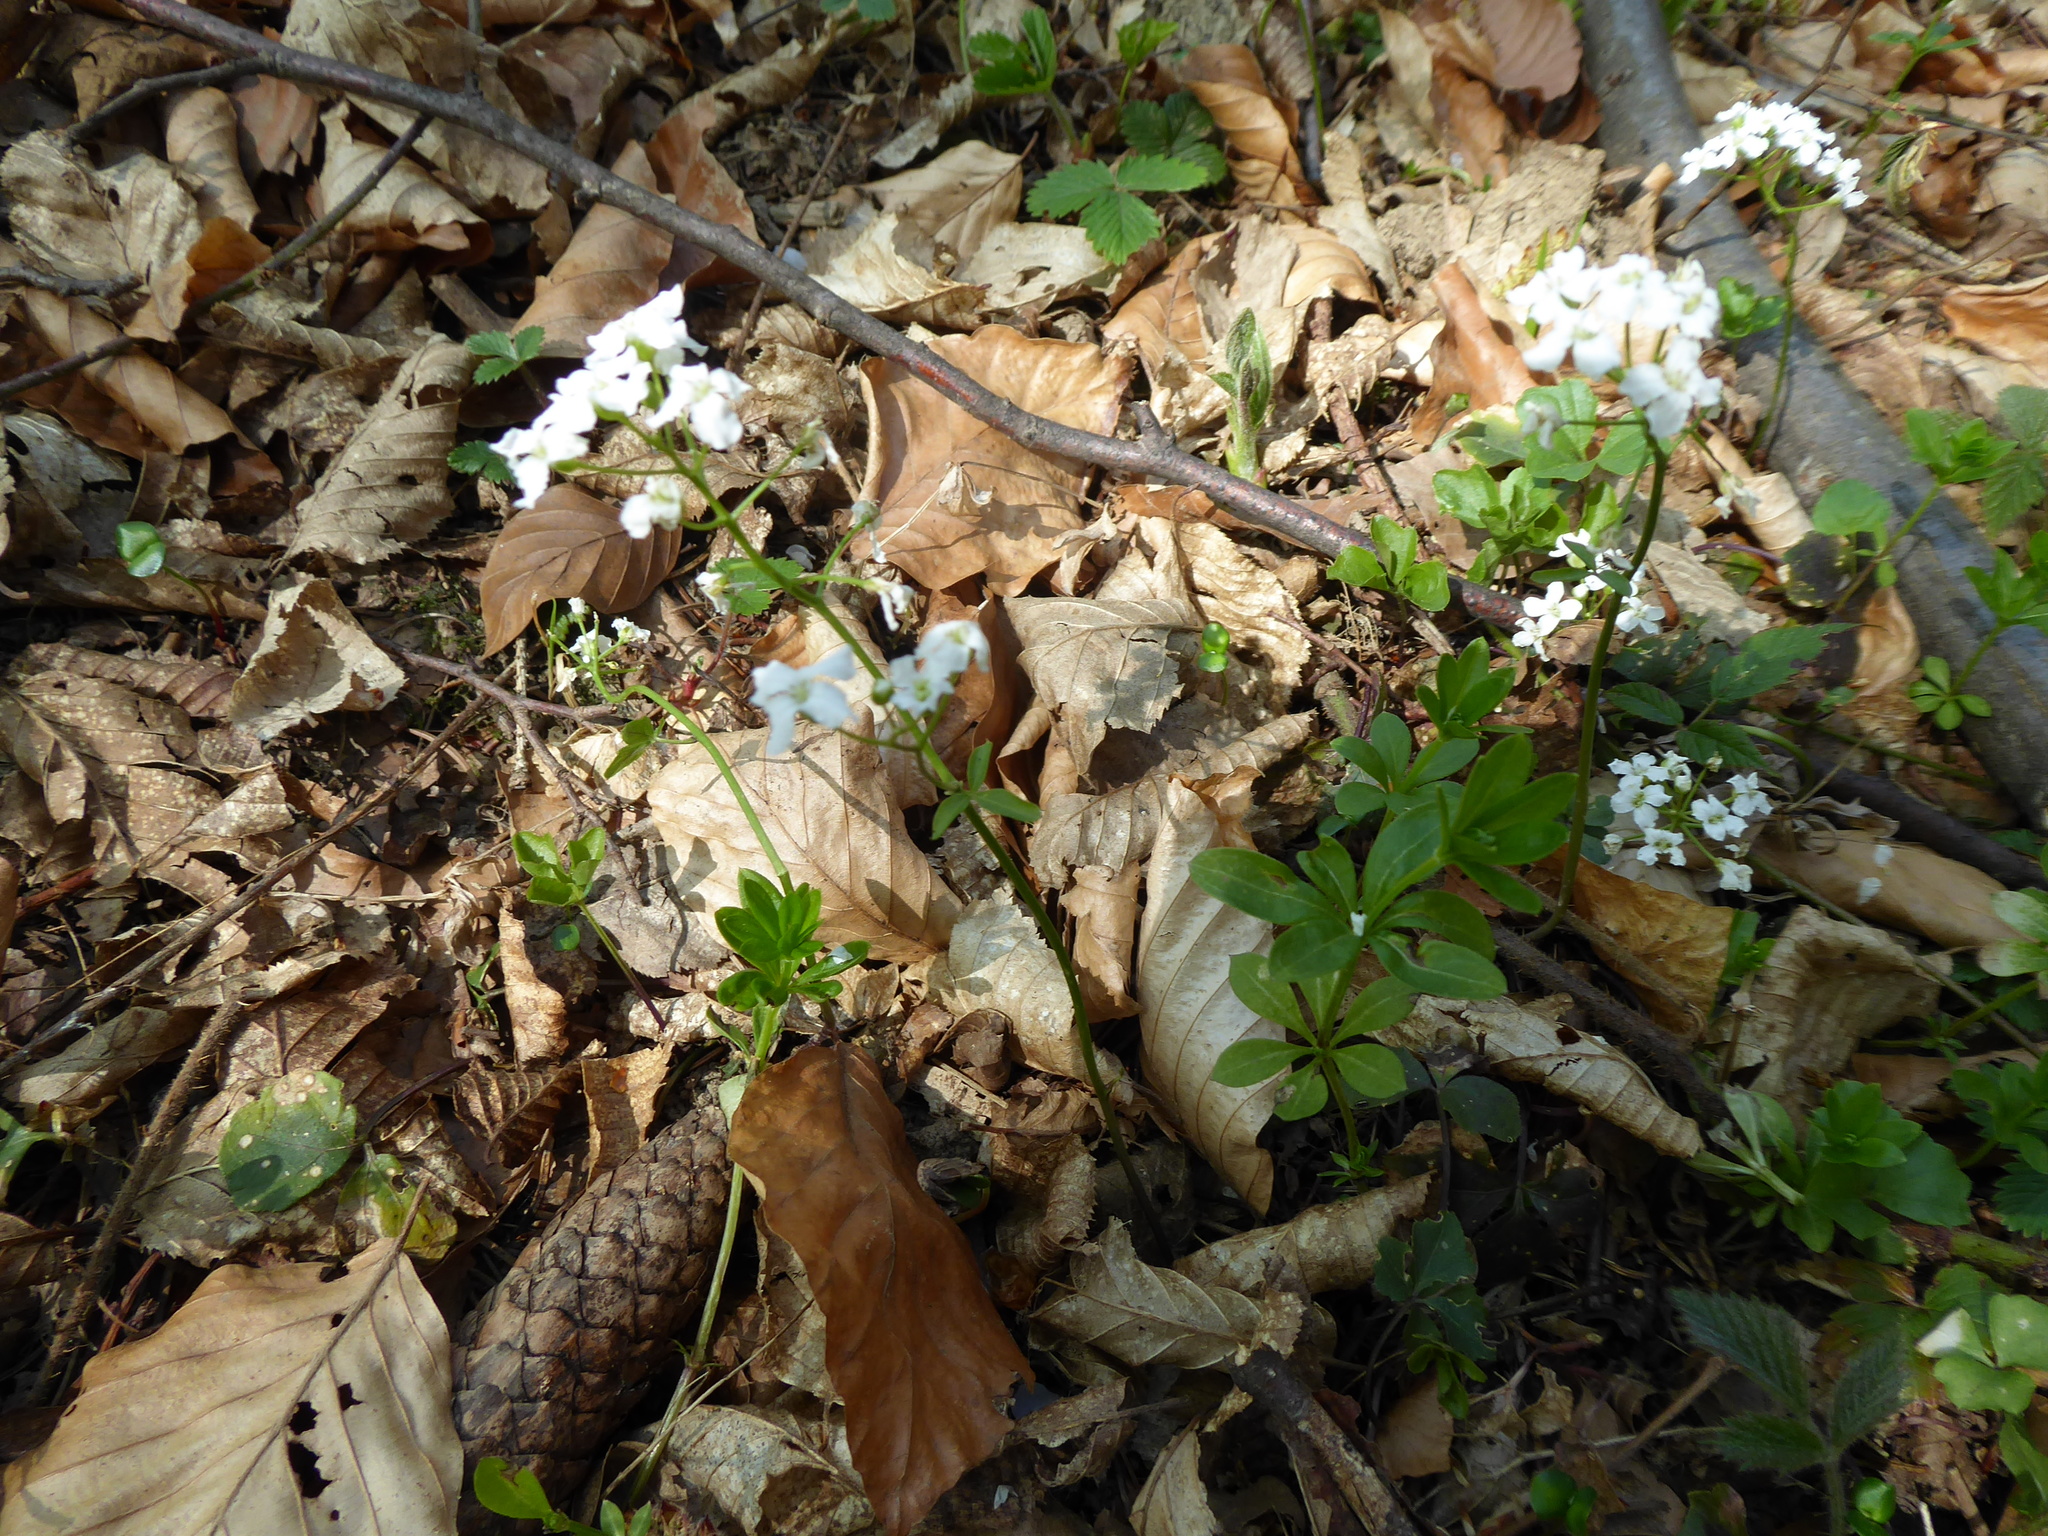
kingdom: Plantae
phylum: Tracheophyta
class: Magnoliopsida
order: Brassicales
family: Brassicaceae
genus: Cardamine
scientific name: Cardamine trifolia
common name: Trefoil cress
